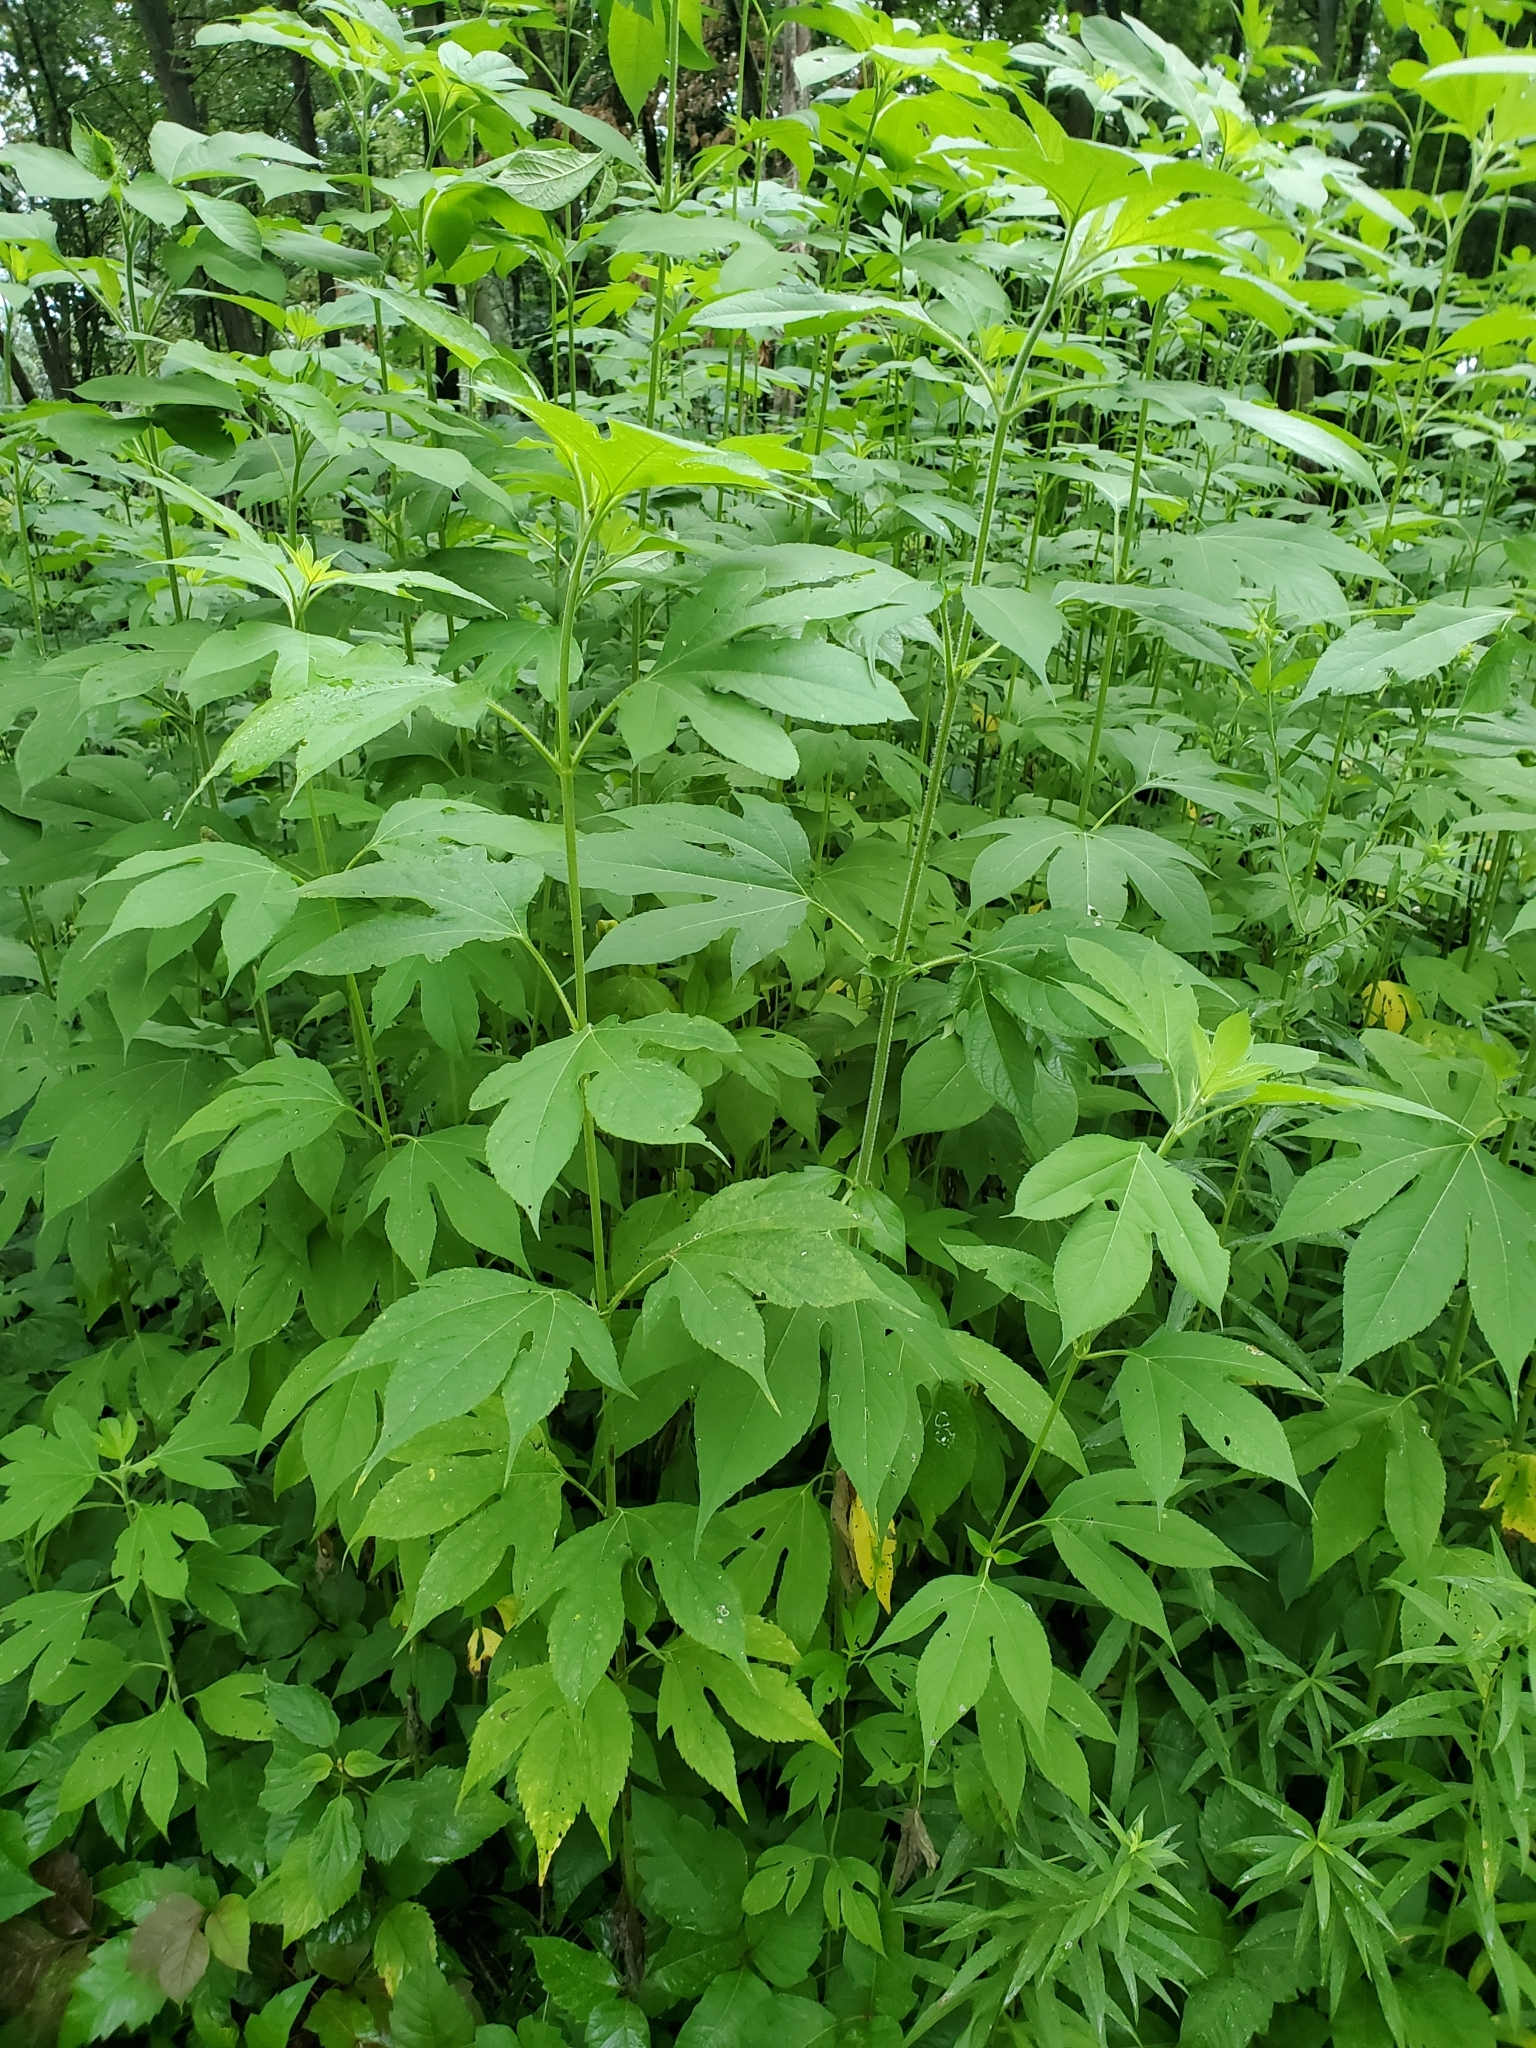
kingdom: Plantae
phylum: Tracheophyta
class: Magnoliopsida
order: Asterales
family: Asteraceae
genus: Ambrosia
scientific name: Ambrosia trifida
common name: Giant ragweed
